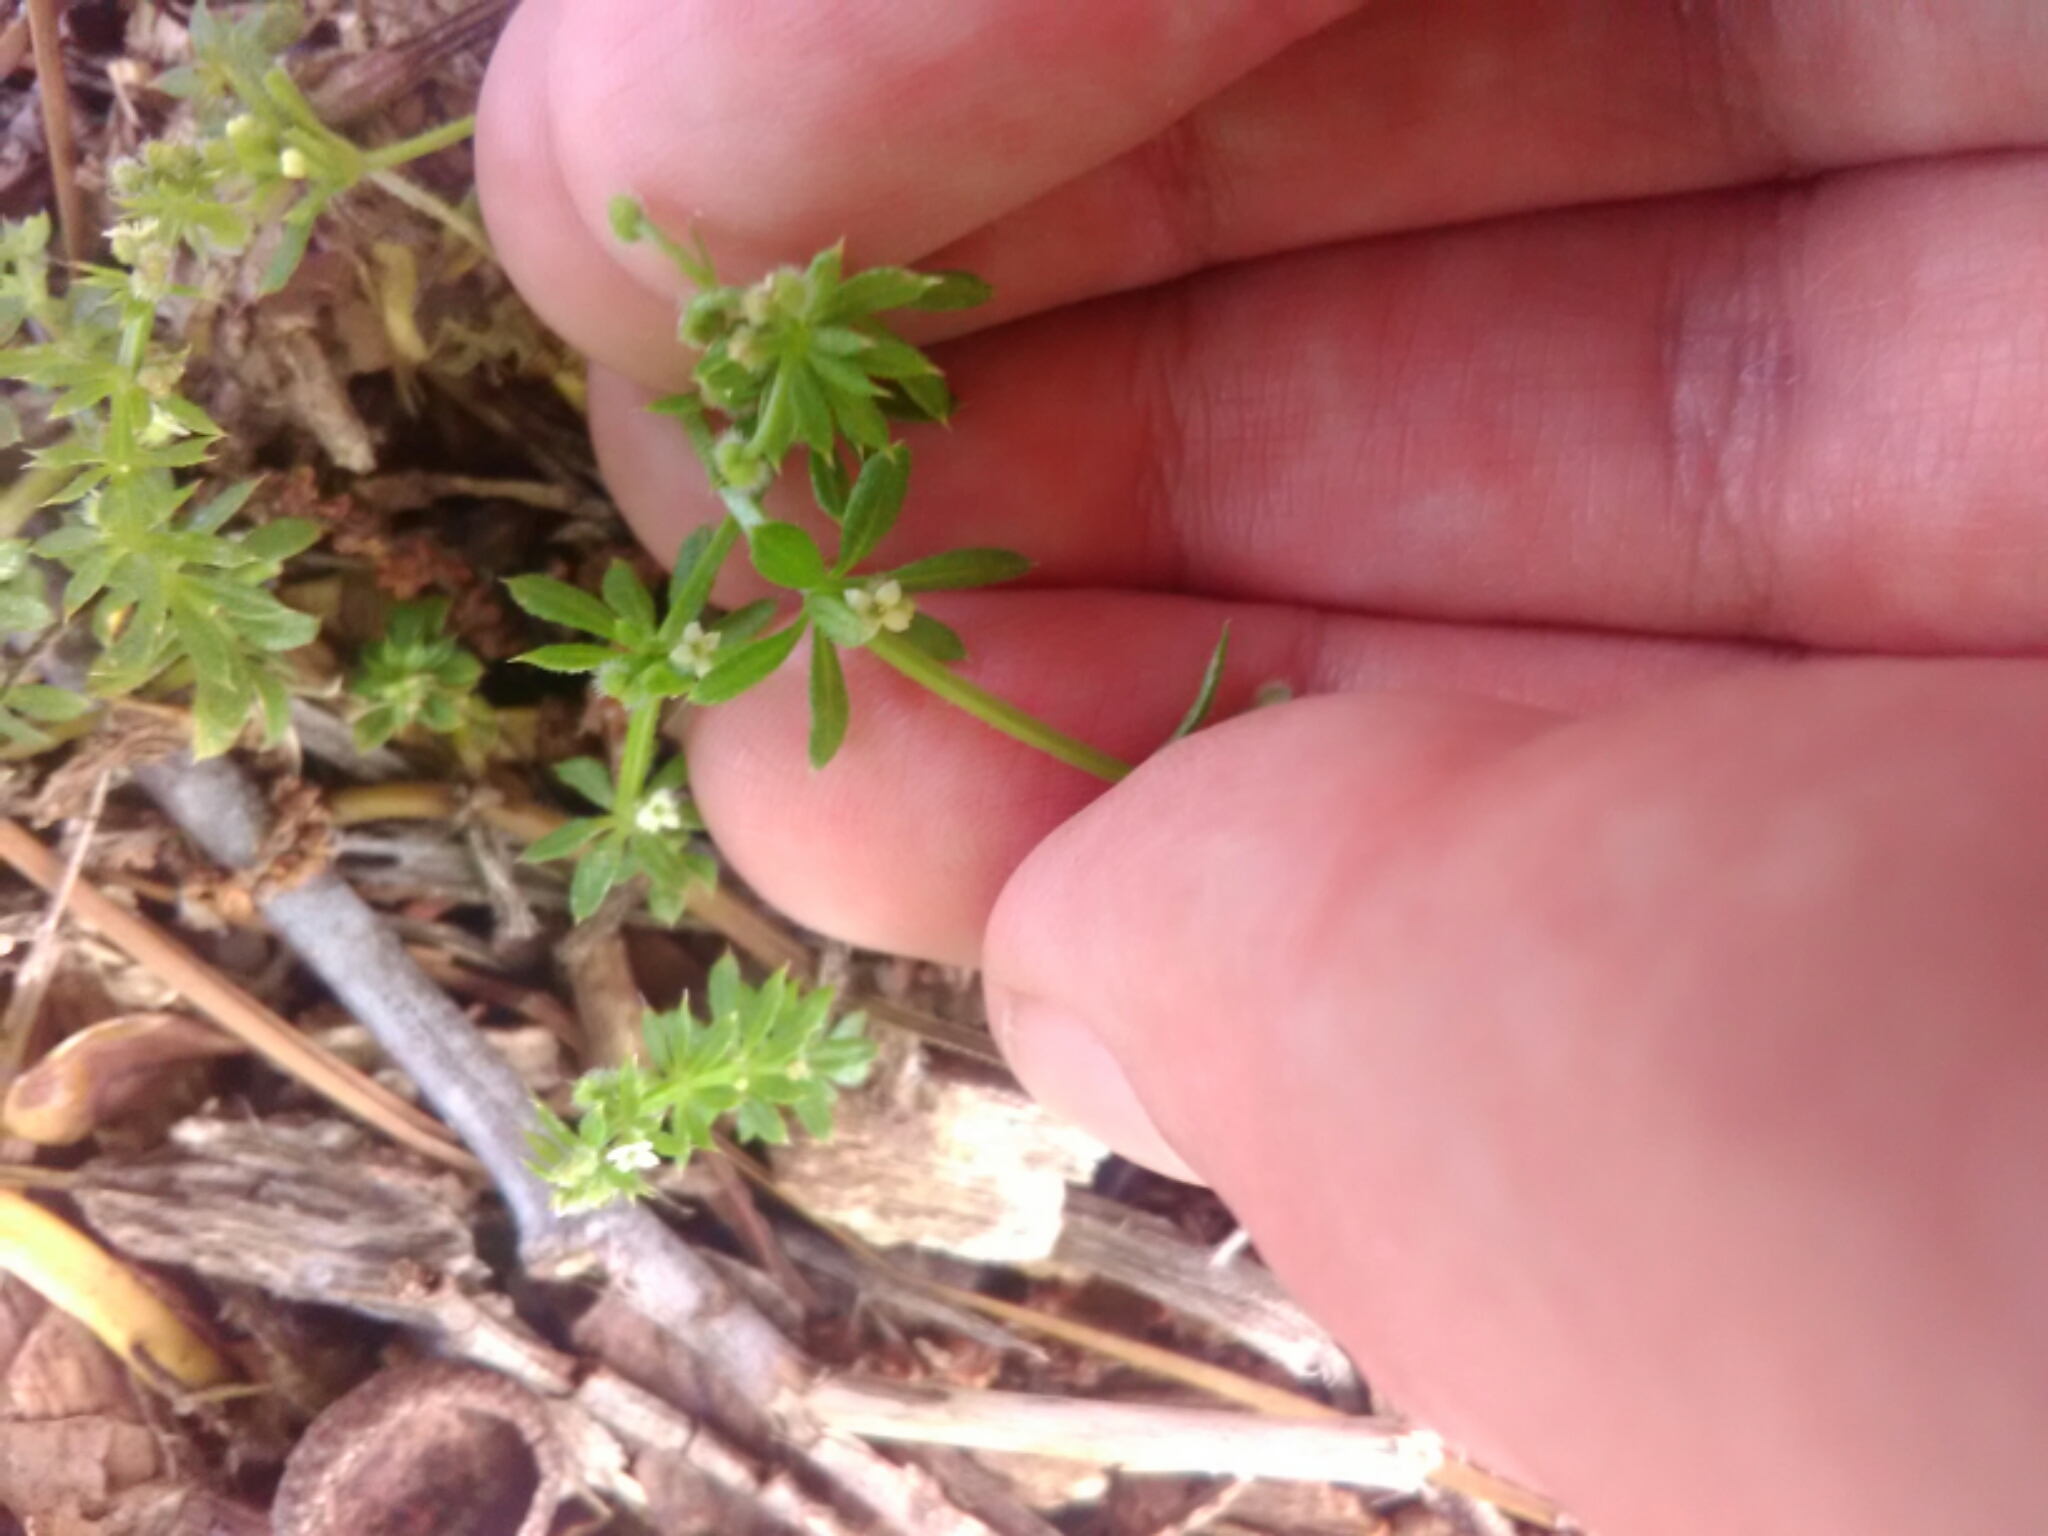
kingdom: Plantae
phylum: Tracheophyta
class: Magnoliopsida
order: Gentianales
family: Rubiaceae
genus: Galium
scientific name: Galium aparine
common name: Cleavers
